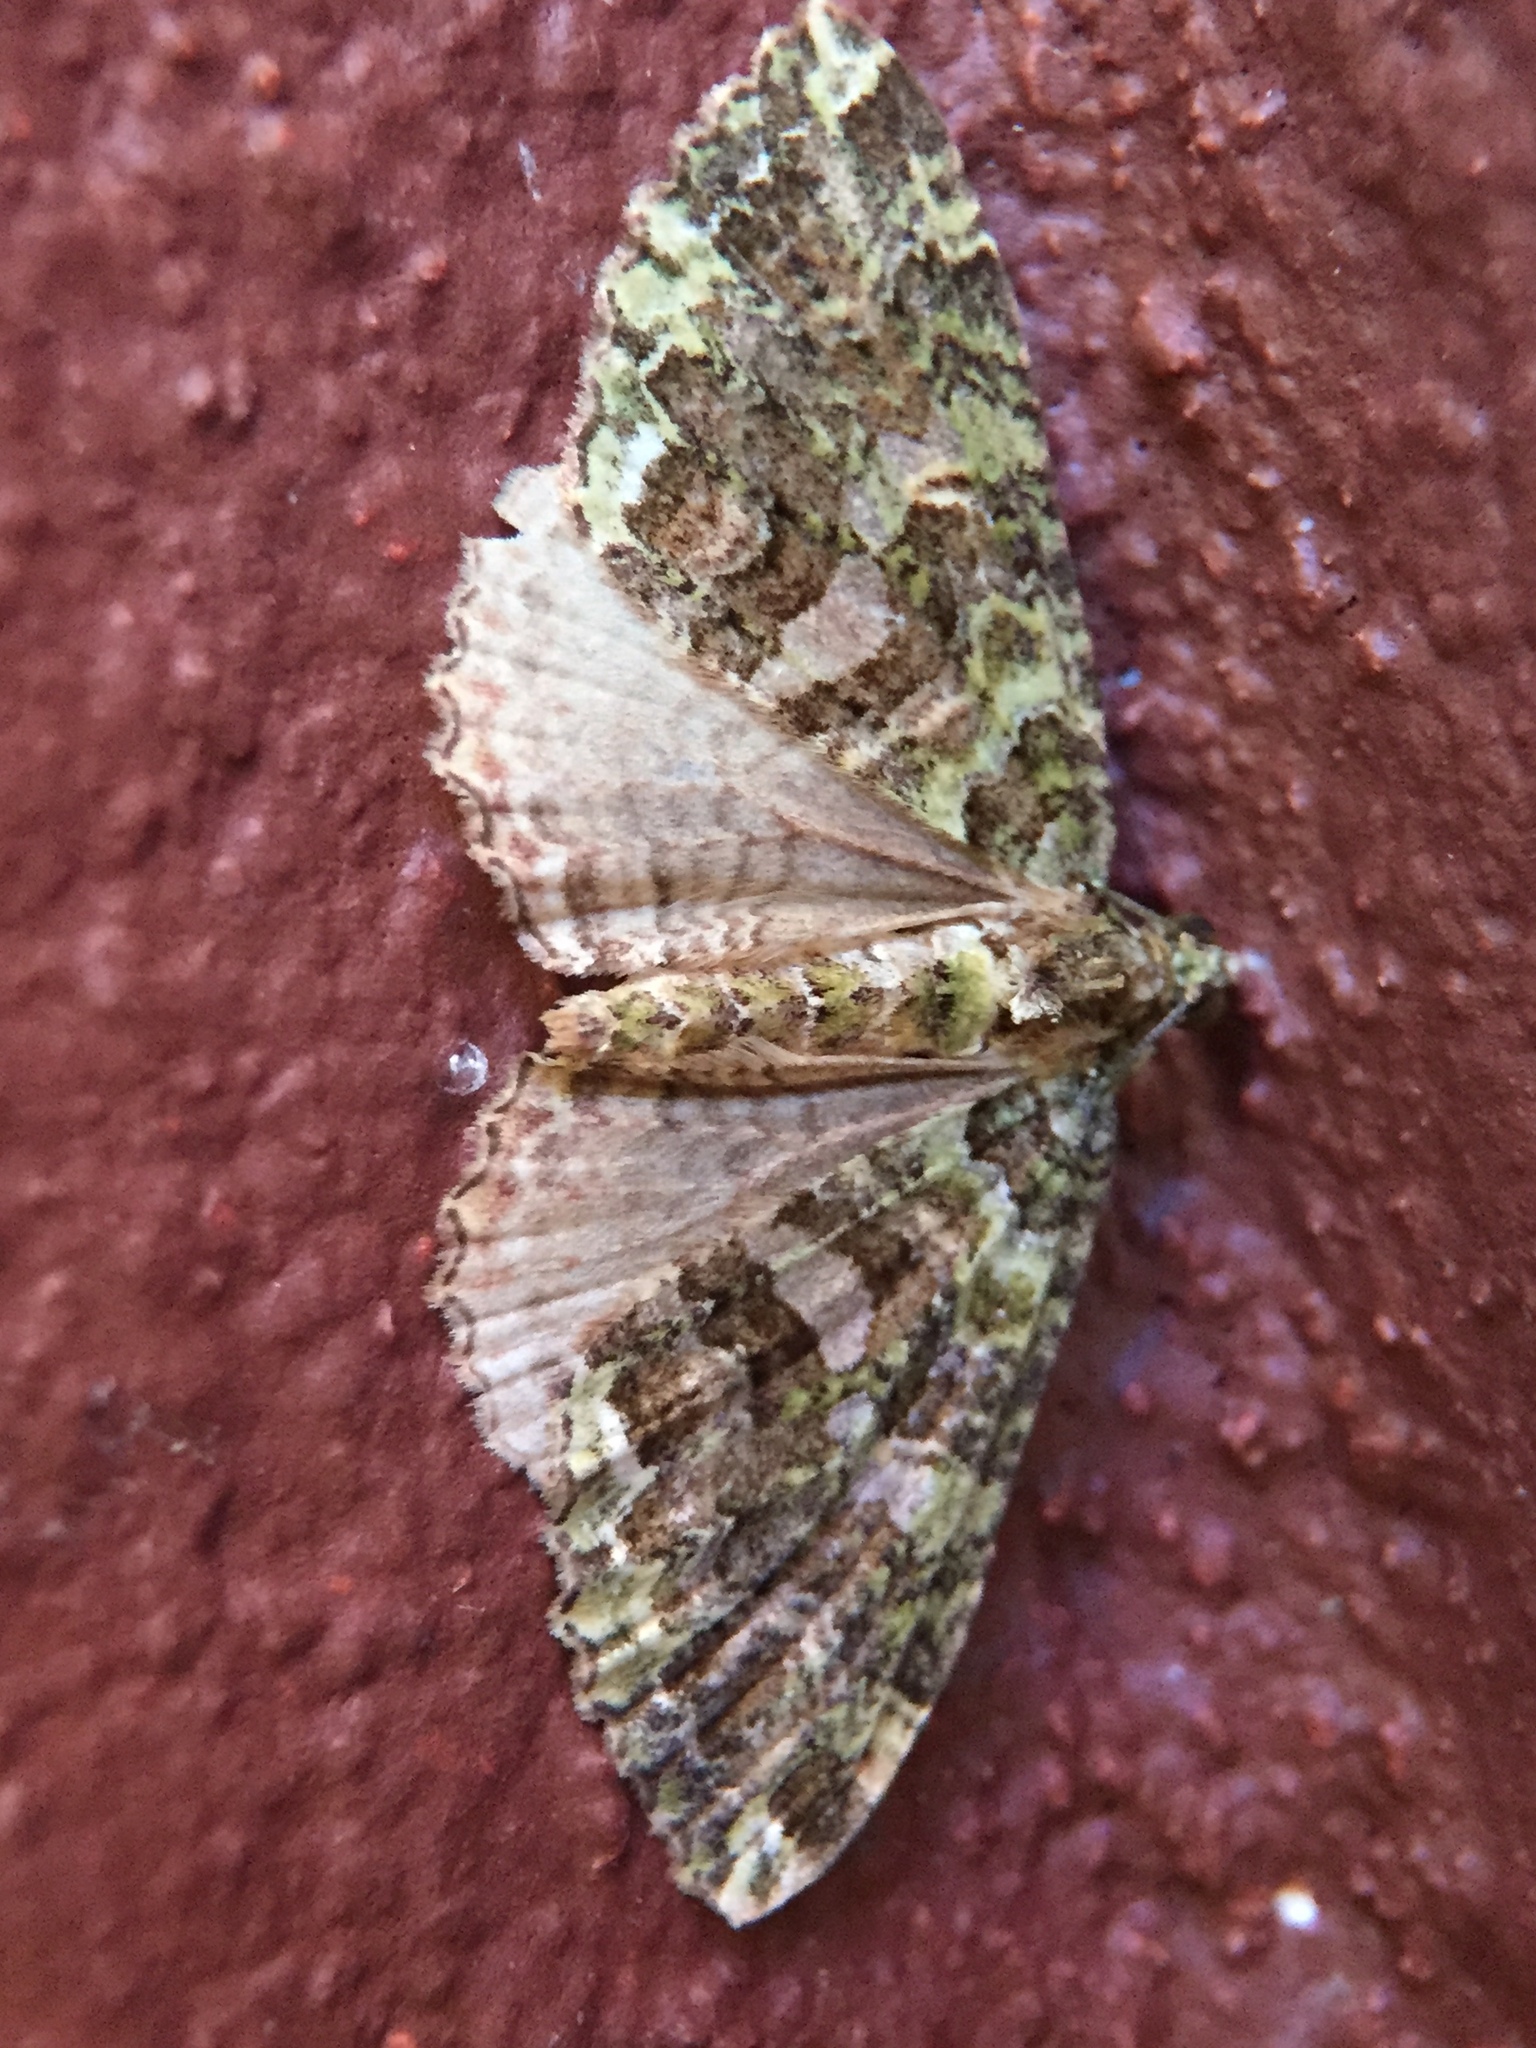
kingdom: Animalia
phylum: Arthropoda
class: Insecta
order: Lepidoptera
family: Geometridae
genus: Austrocidaria
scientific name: Austrocidaria similata
